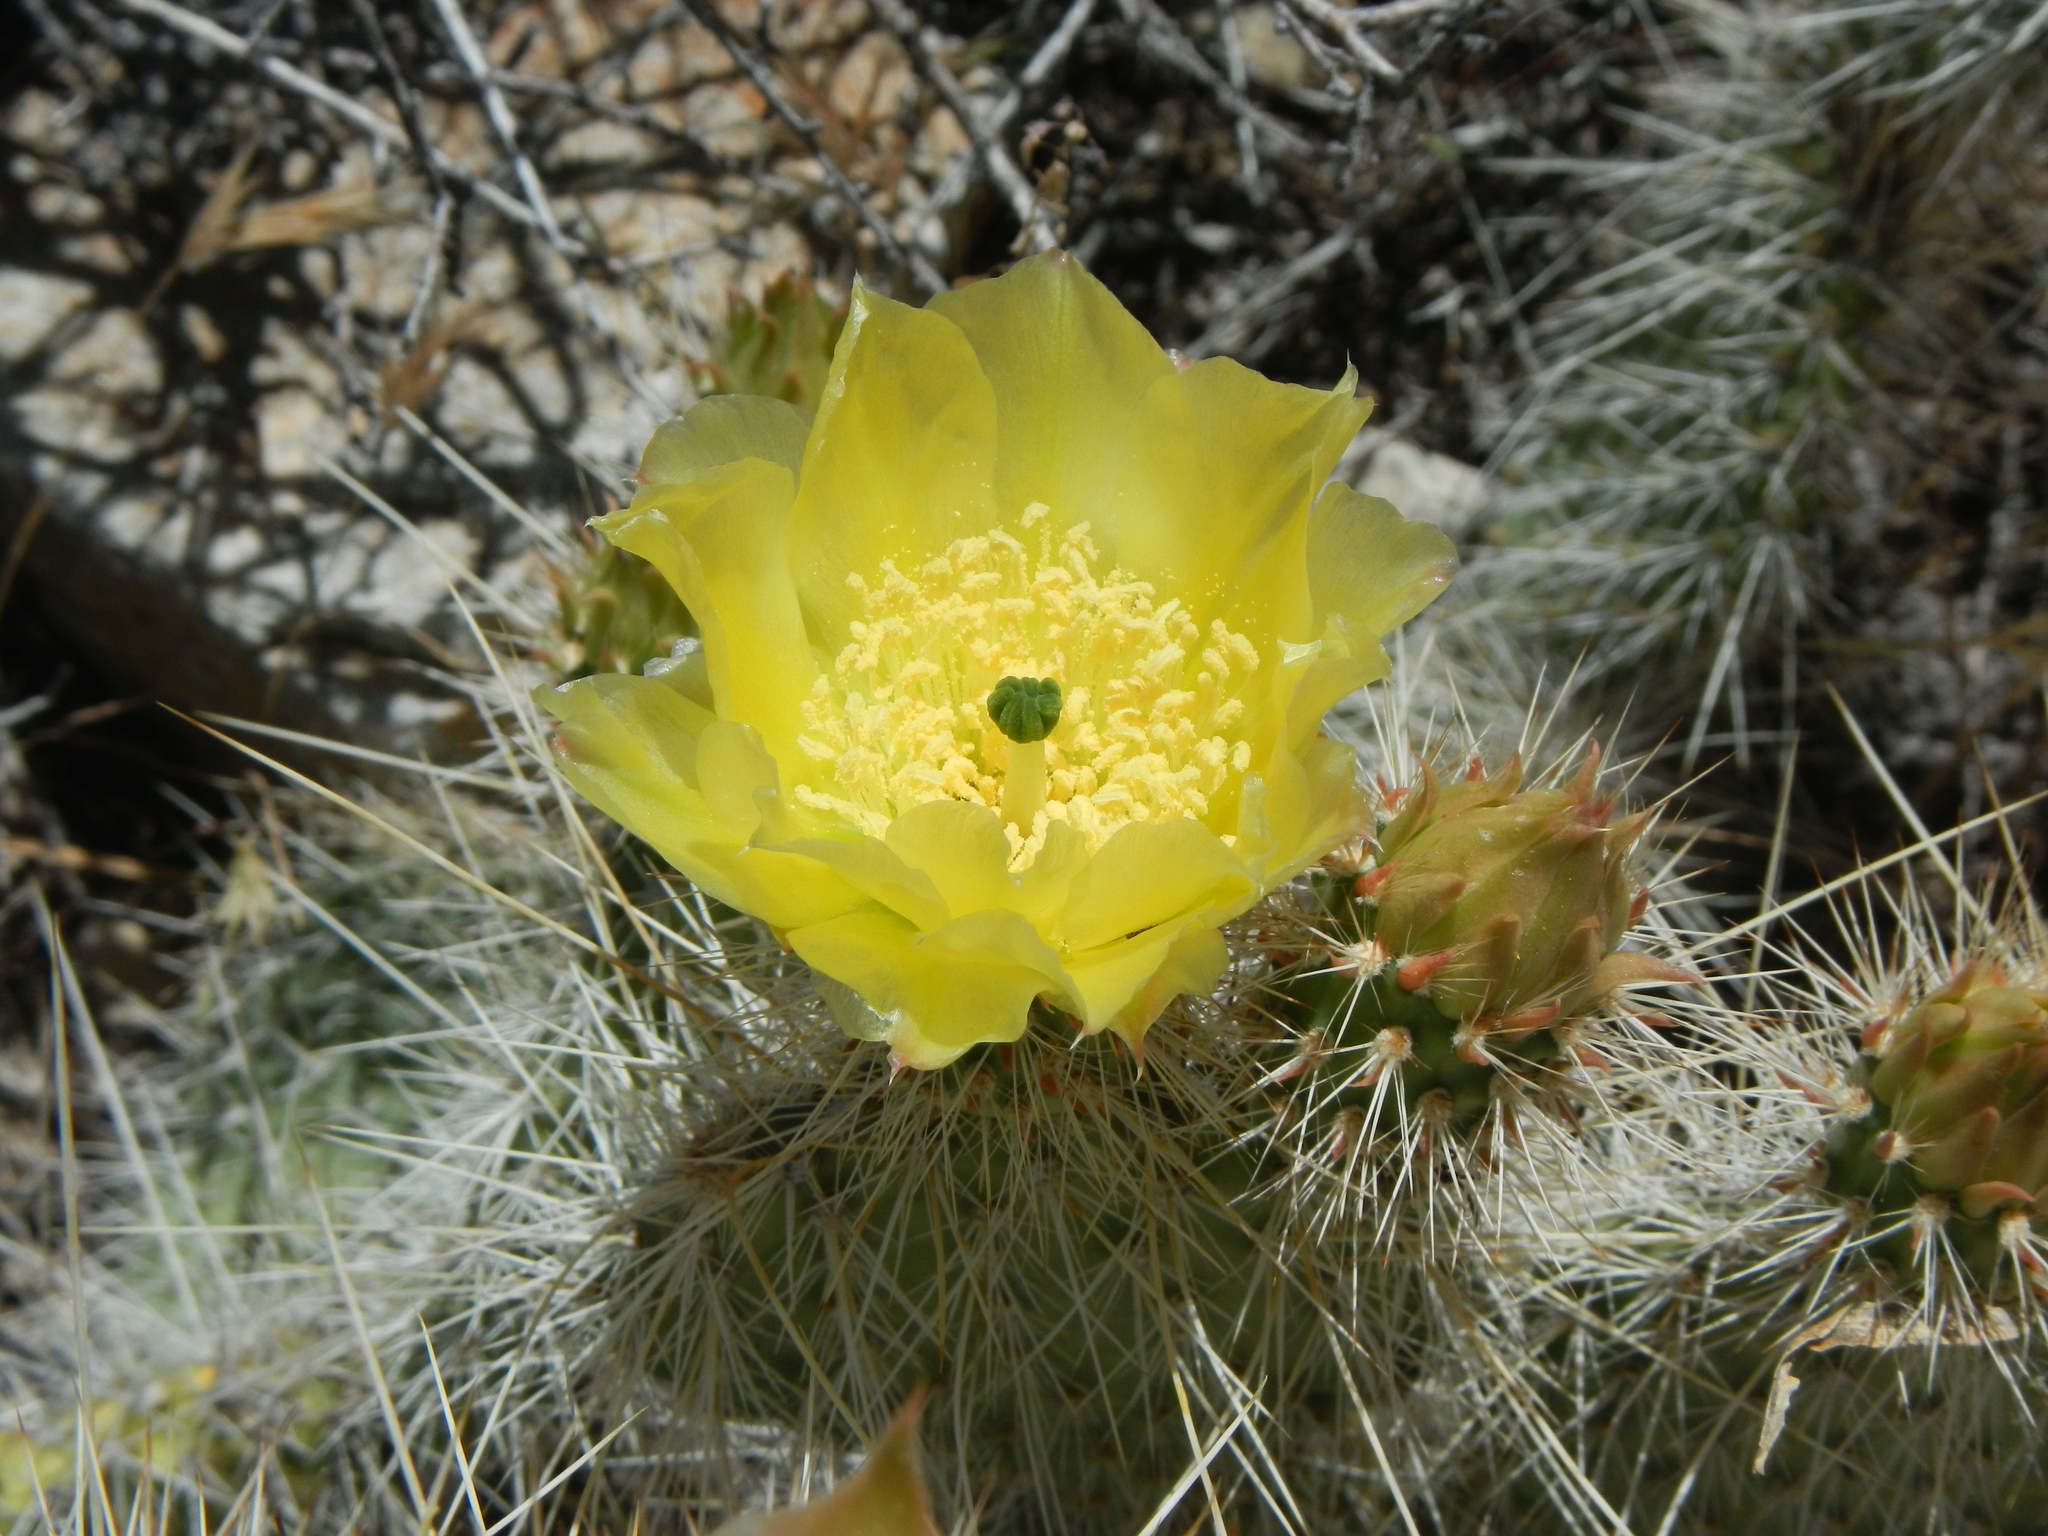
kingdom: Plantae
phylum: Tracheophyta
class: Magnoliopsida
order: Caryophyllales
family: Cactaceae
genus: Opuntia
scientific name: Opuntia polyacantha
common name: Plains prickly-pear
